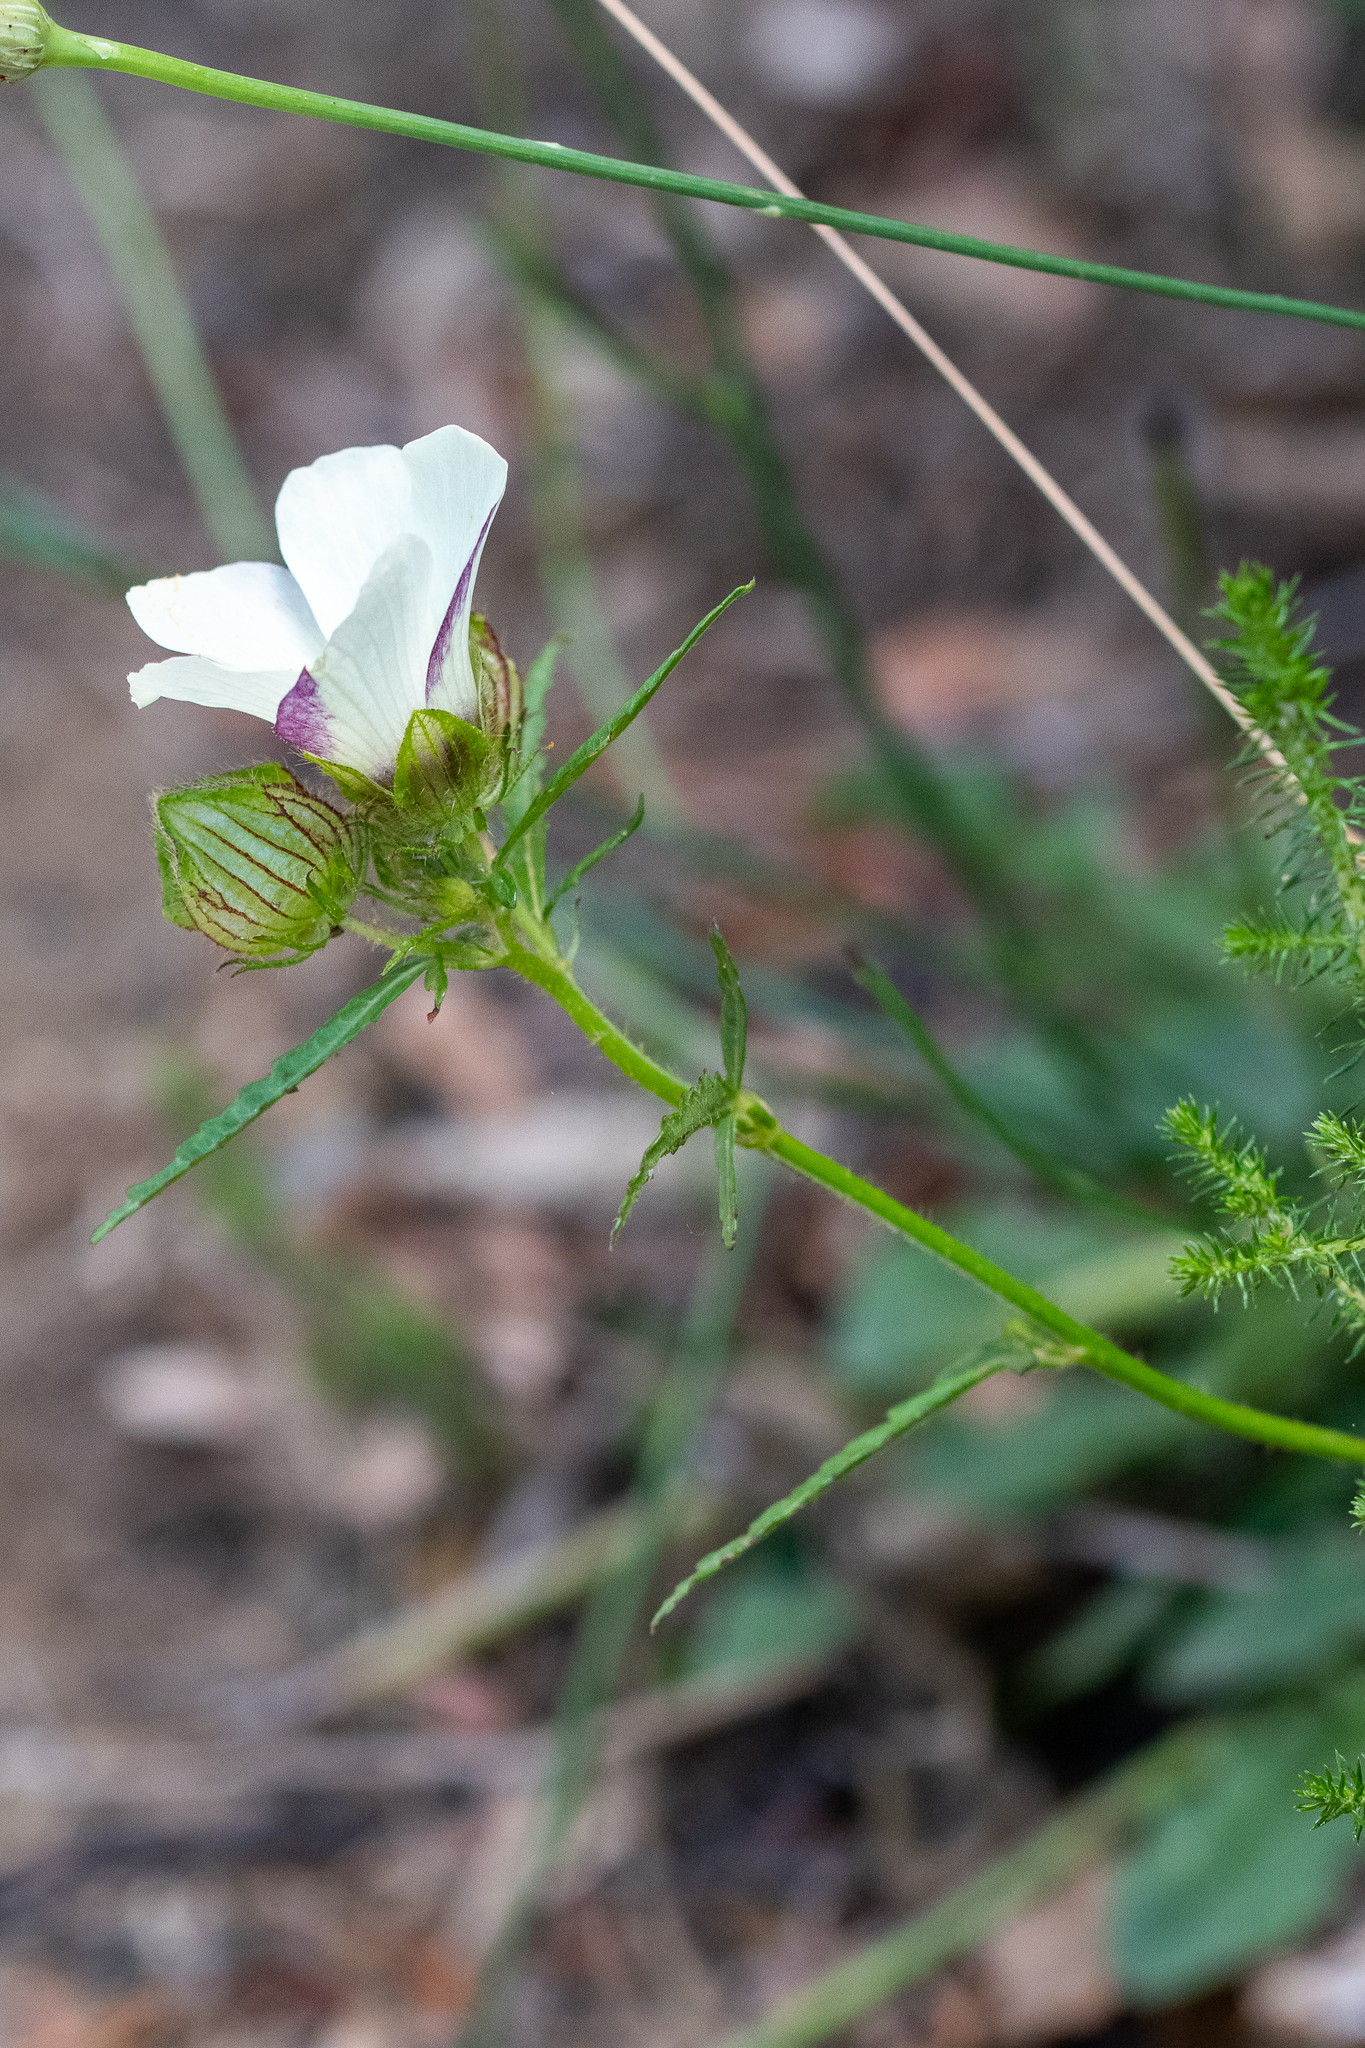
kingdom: Plantae
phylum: Tracheophyta
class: Magnoliopsida
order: Malvales
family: Malvaceae
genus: Hibiscus
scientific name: Hibiscus trionum
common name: Bladder ketmia
